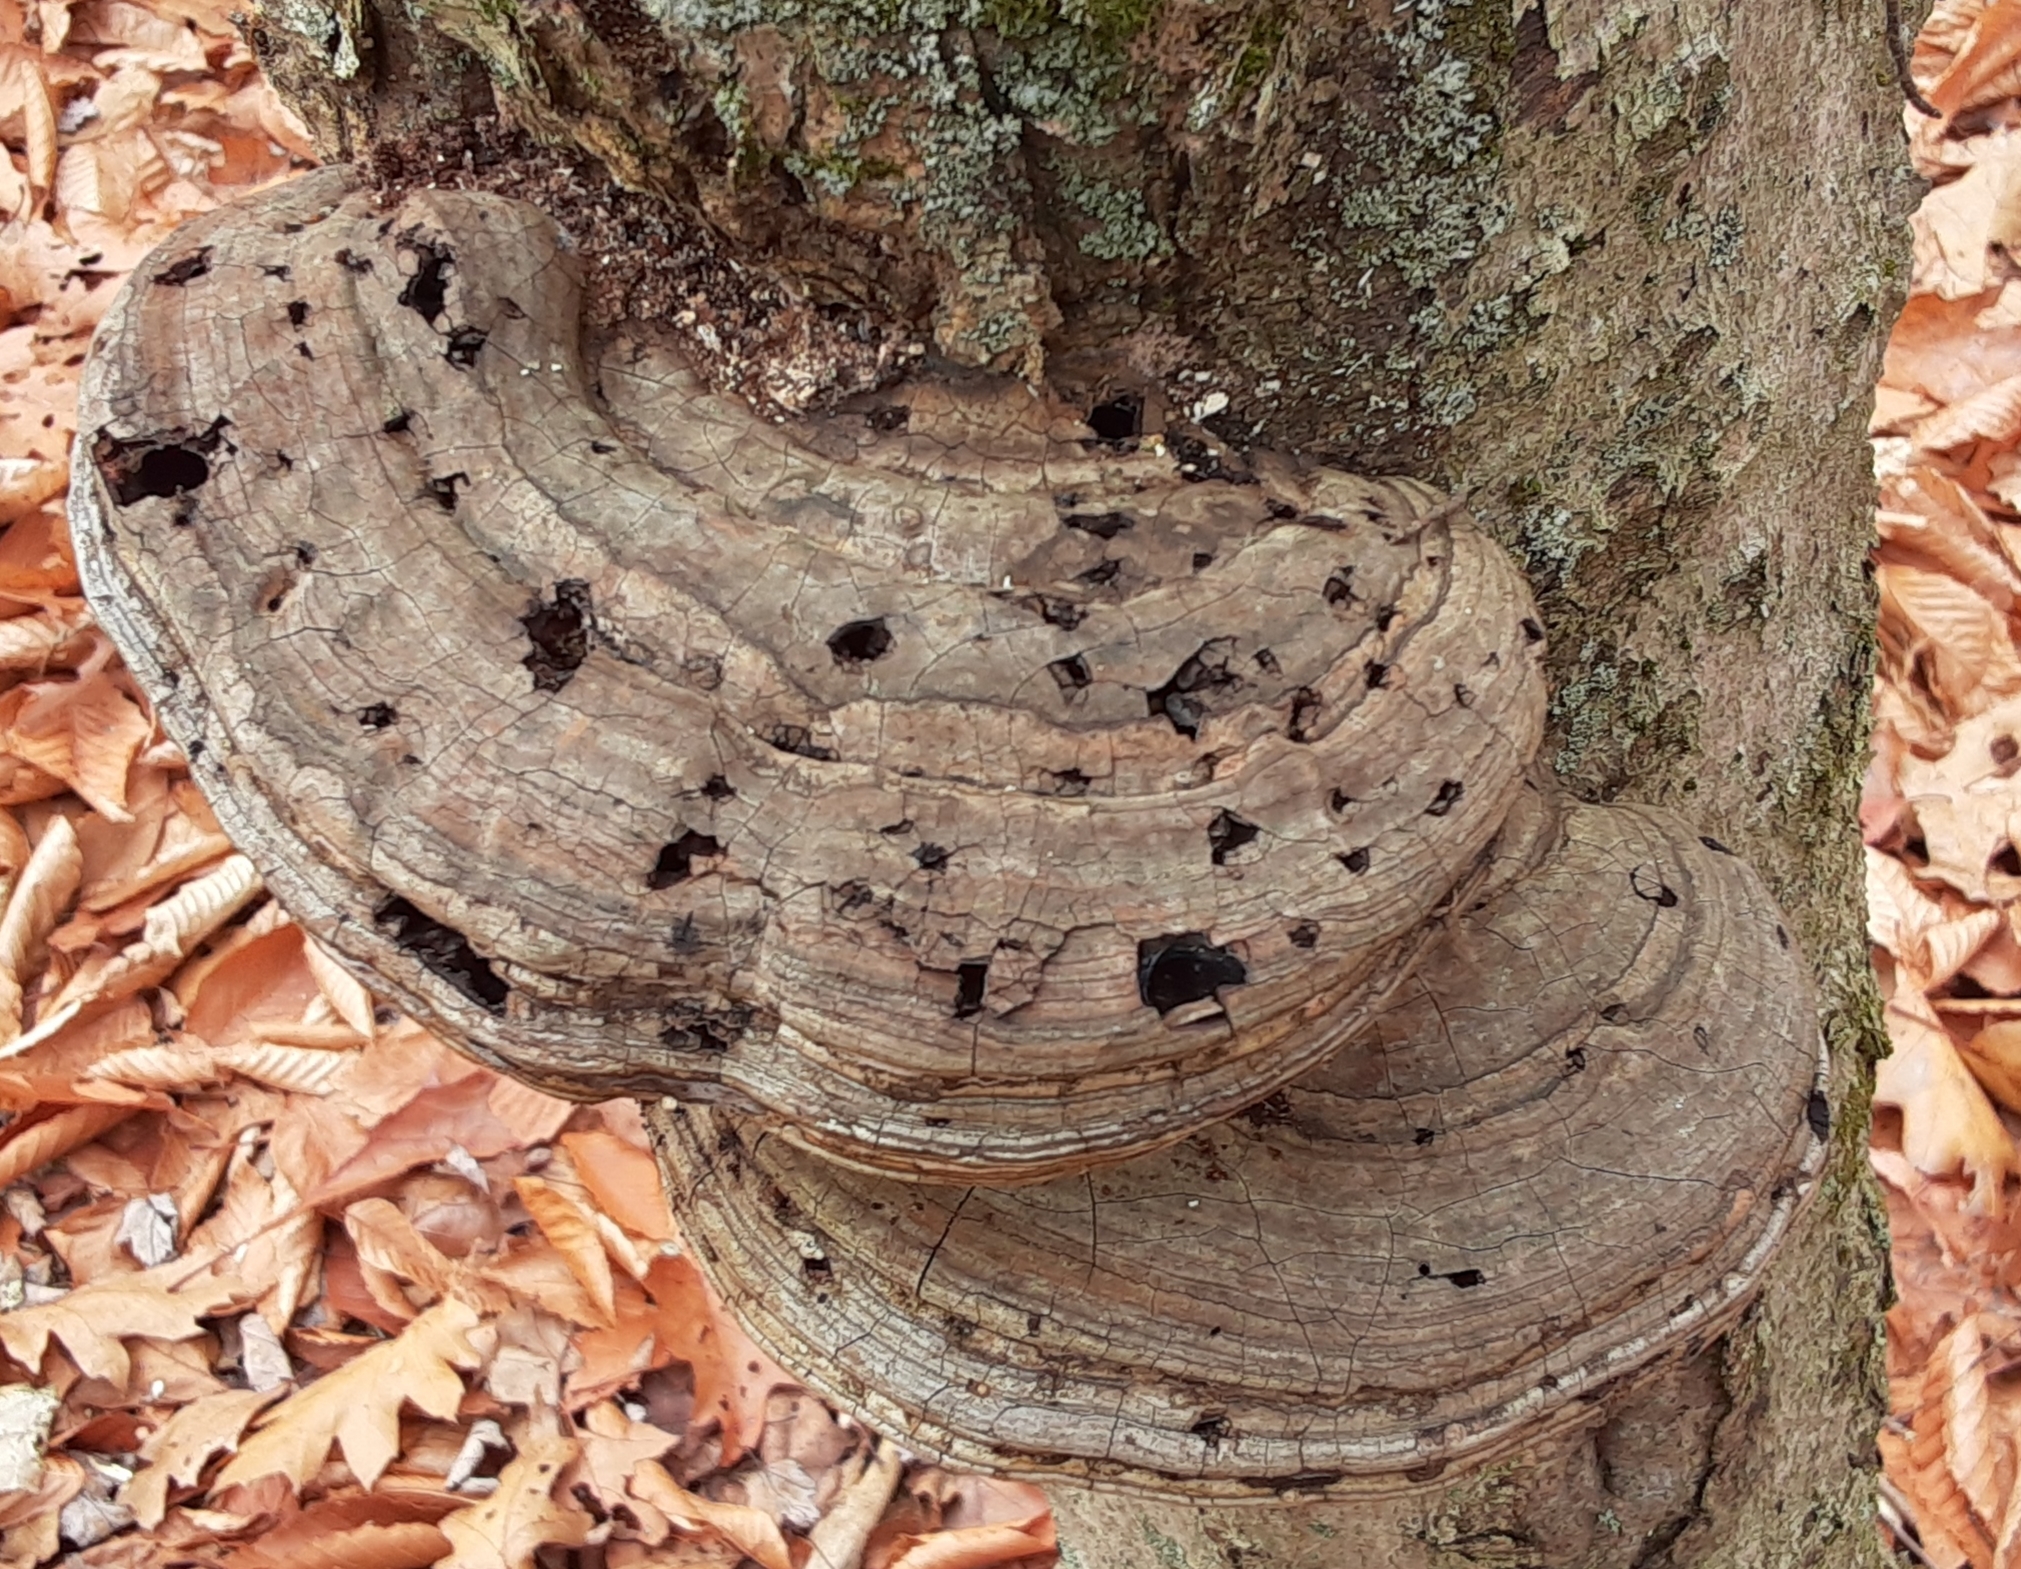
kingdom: Fungi
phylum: Basidiomycota
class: Agaricomycetes
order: Polyporales
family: Polyporaceae
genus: Ganoderma
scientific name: Ganoderma applanatum
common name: Artist's bracket
